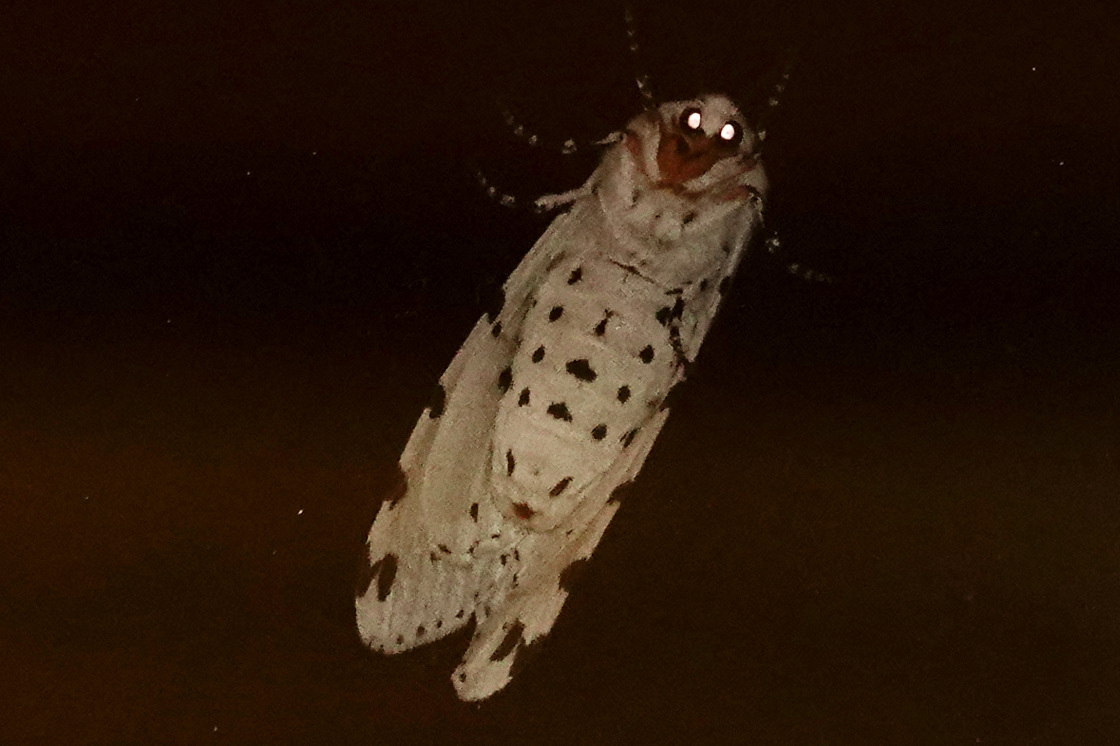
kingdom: Animalia
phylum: Arthropoda
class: Insecta
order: Lepidoptera
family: Erebidae
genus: Estigmene
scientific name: Estigmene acrea
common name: Salt marsh moth
